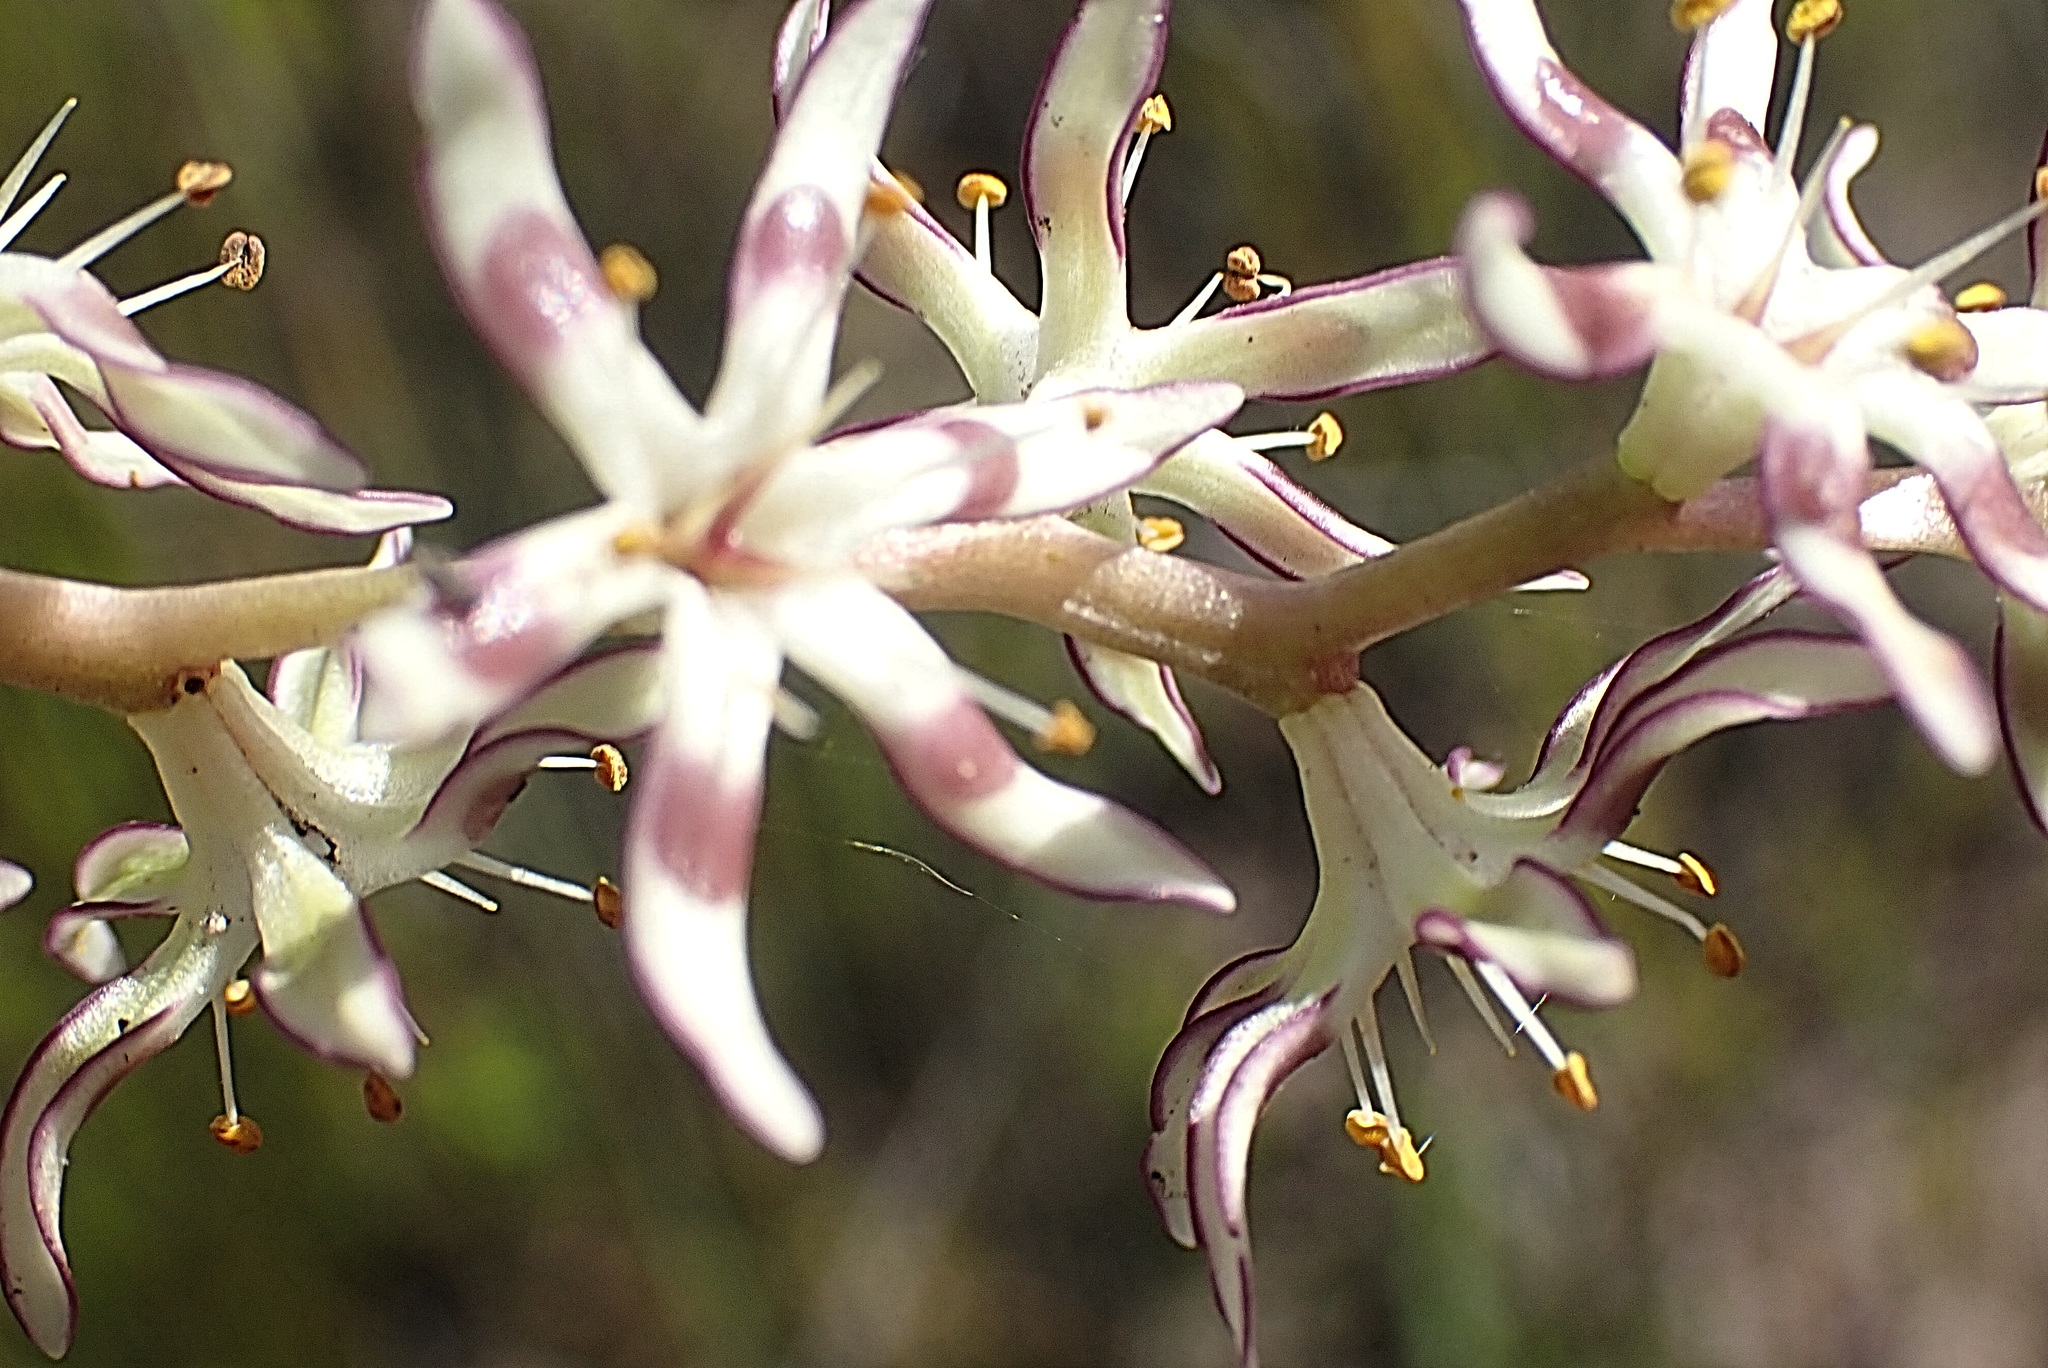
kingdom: Plantae
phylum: Tracheophyta
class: Liliopsida
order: Liliales
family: Colchicaceae
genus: Wurmbea
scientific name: Wurmbea spicata
